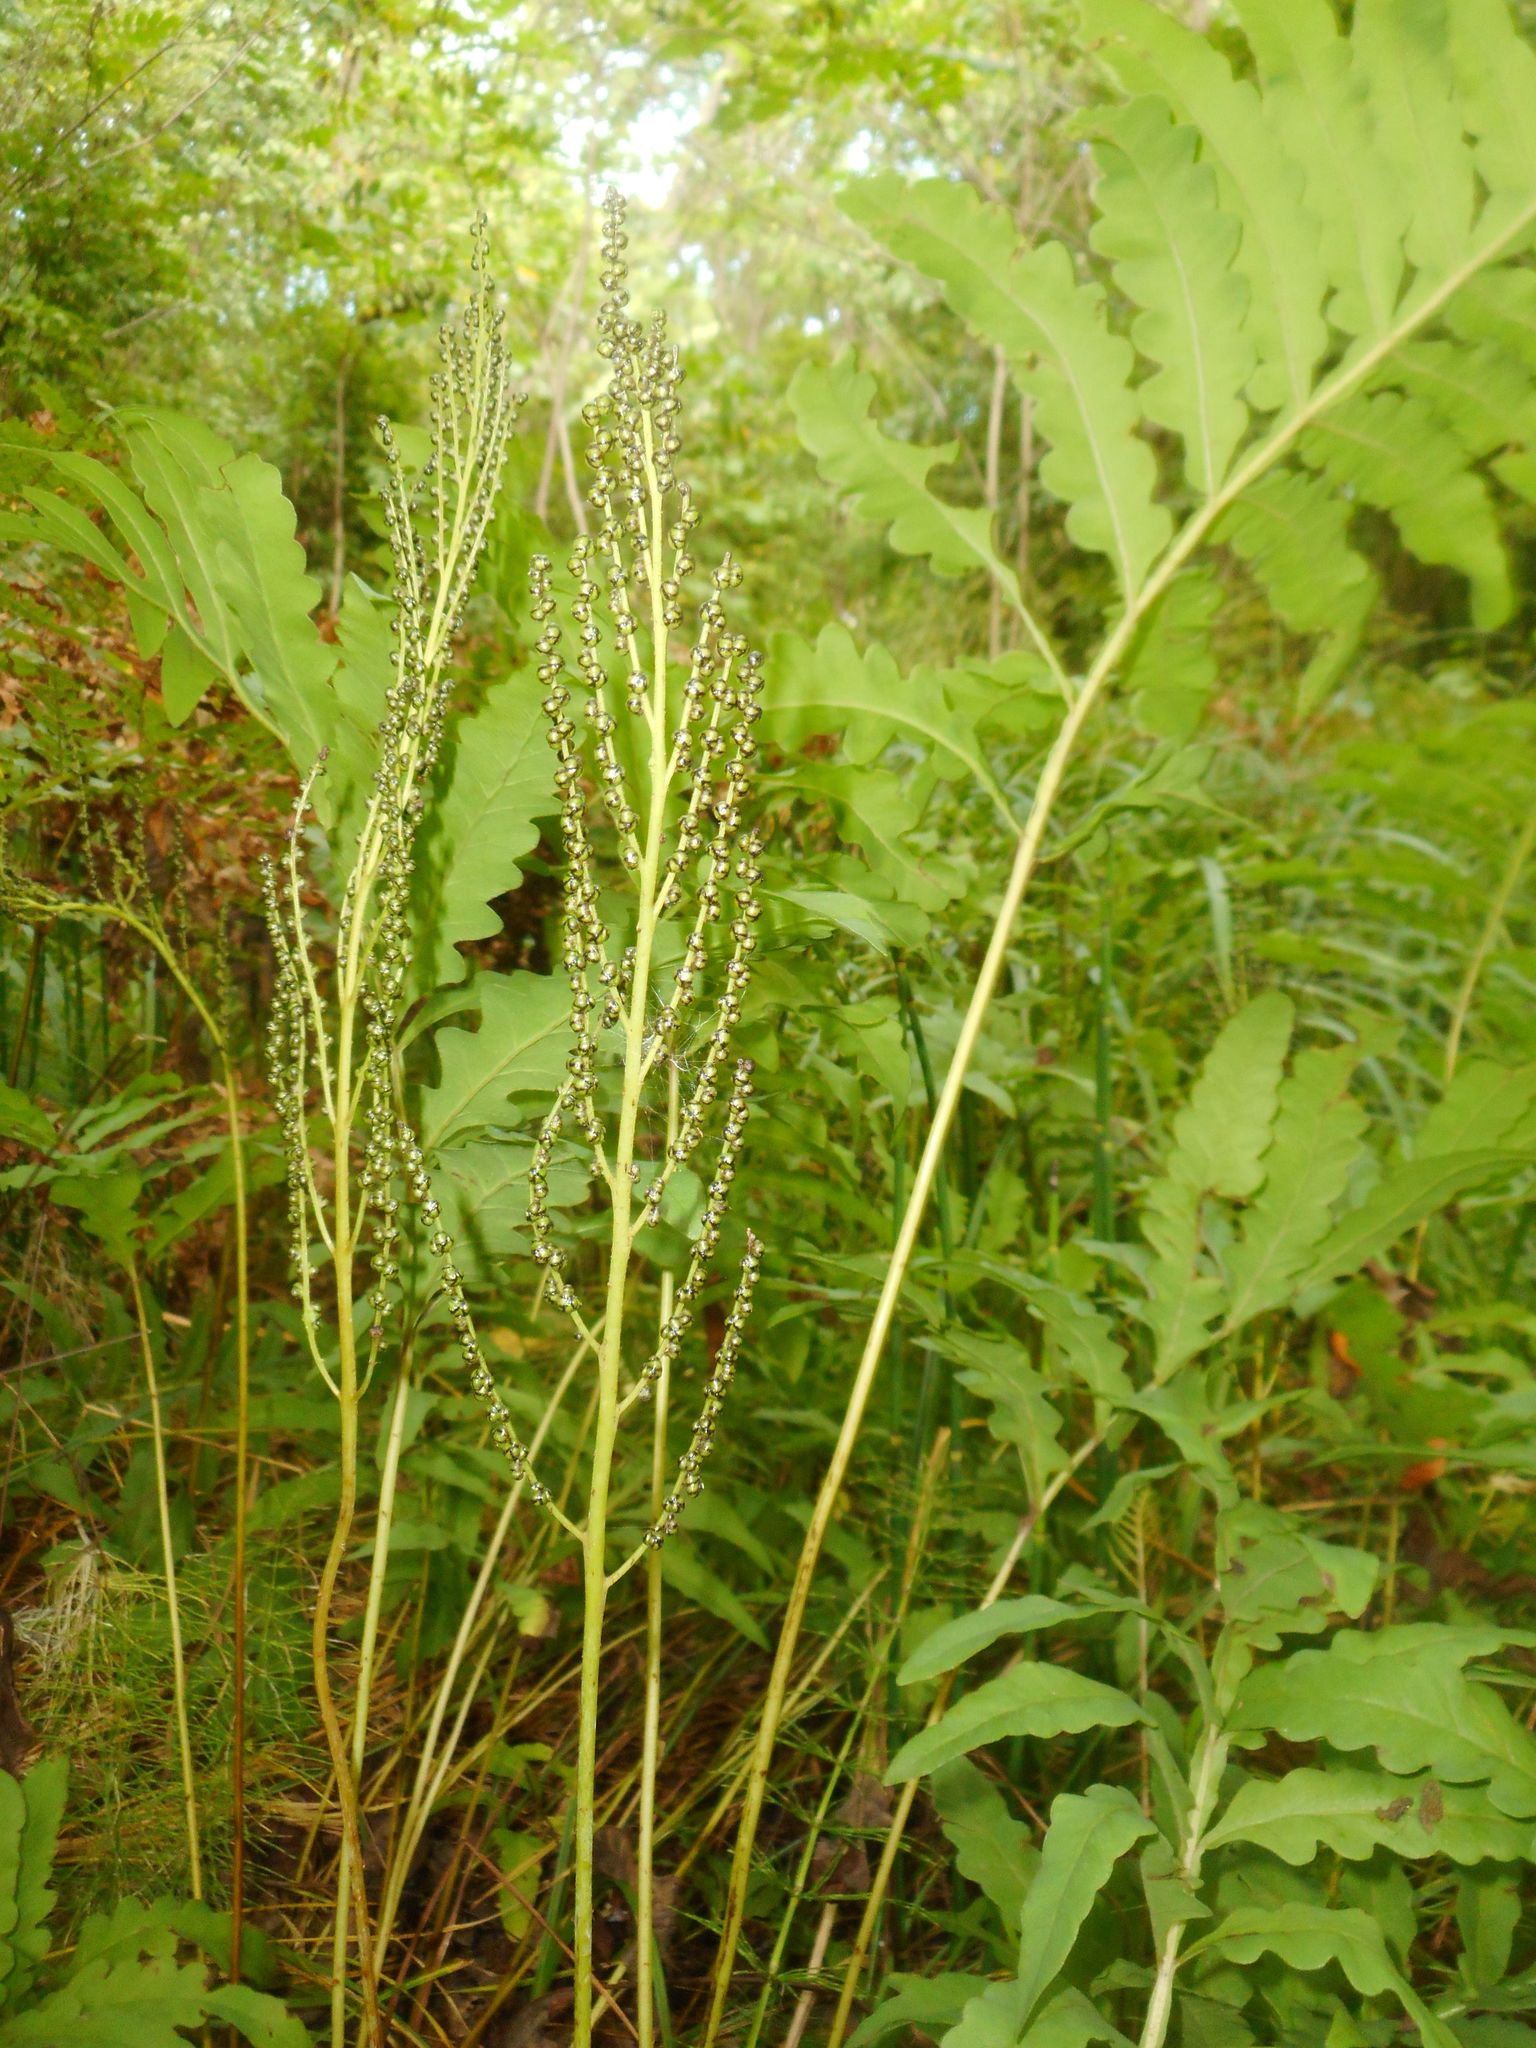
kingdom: Plantae
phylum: Tracheophyta
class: Polypodiopsida
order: Polypodiales
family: Onocleaceae
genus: Onoclea
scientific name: Onoclea sensibilis
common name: Sensitive fern
